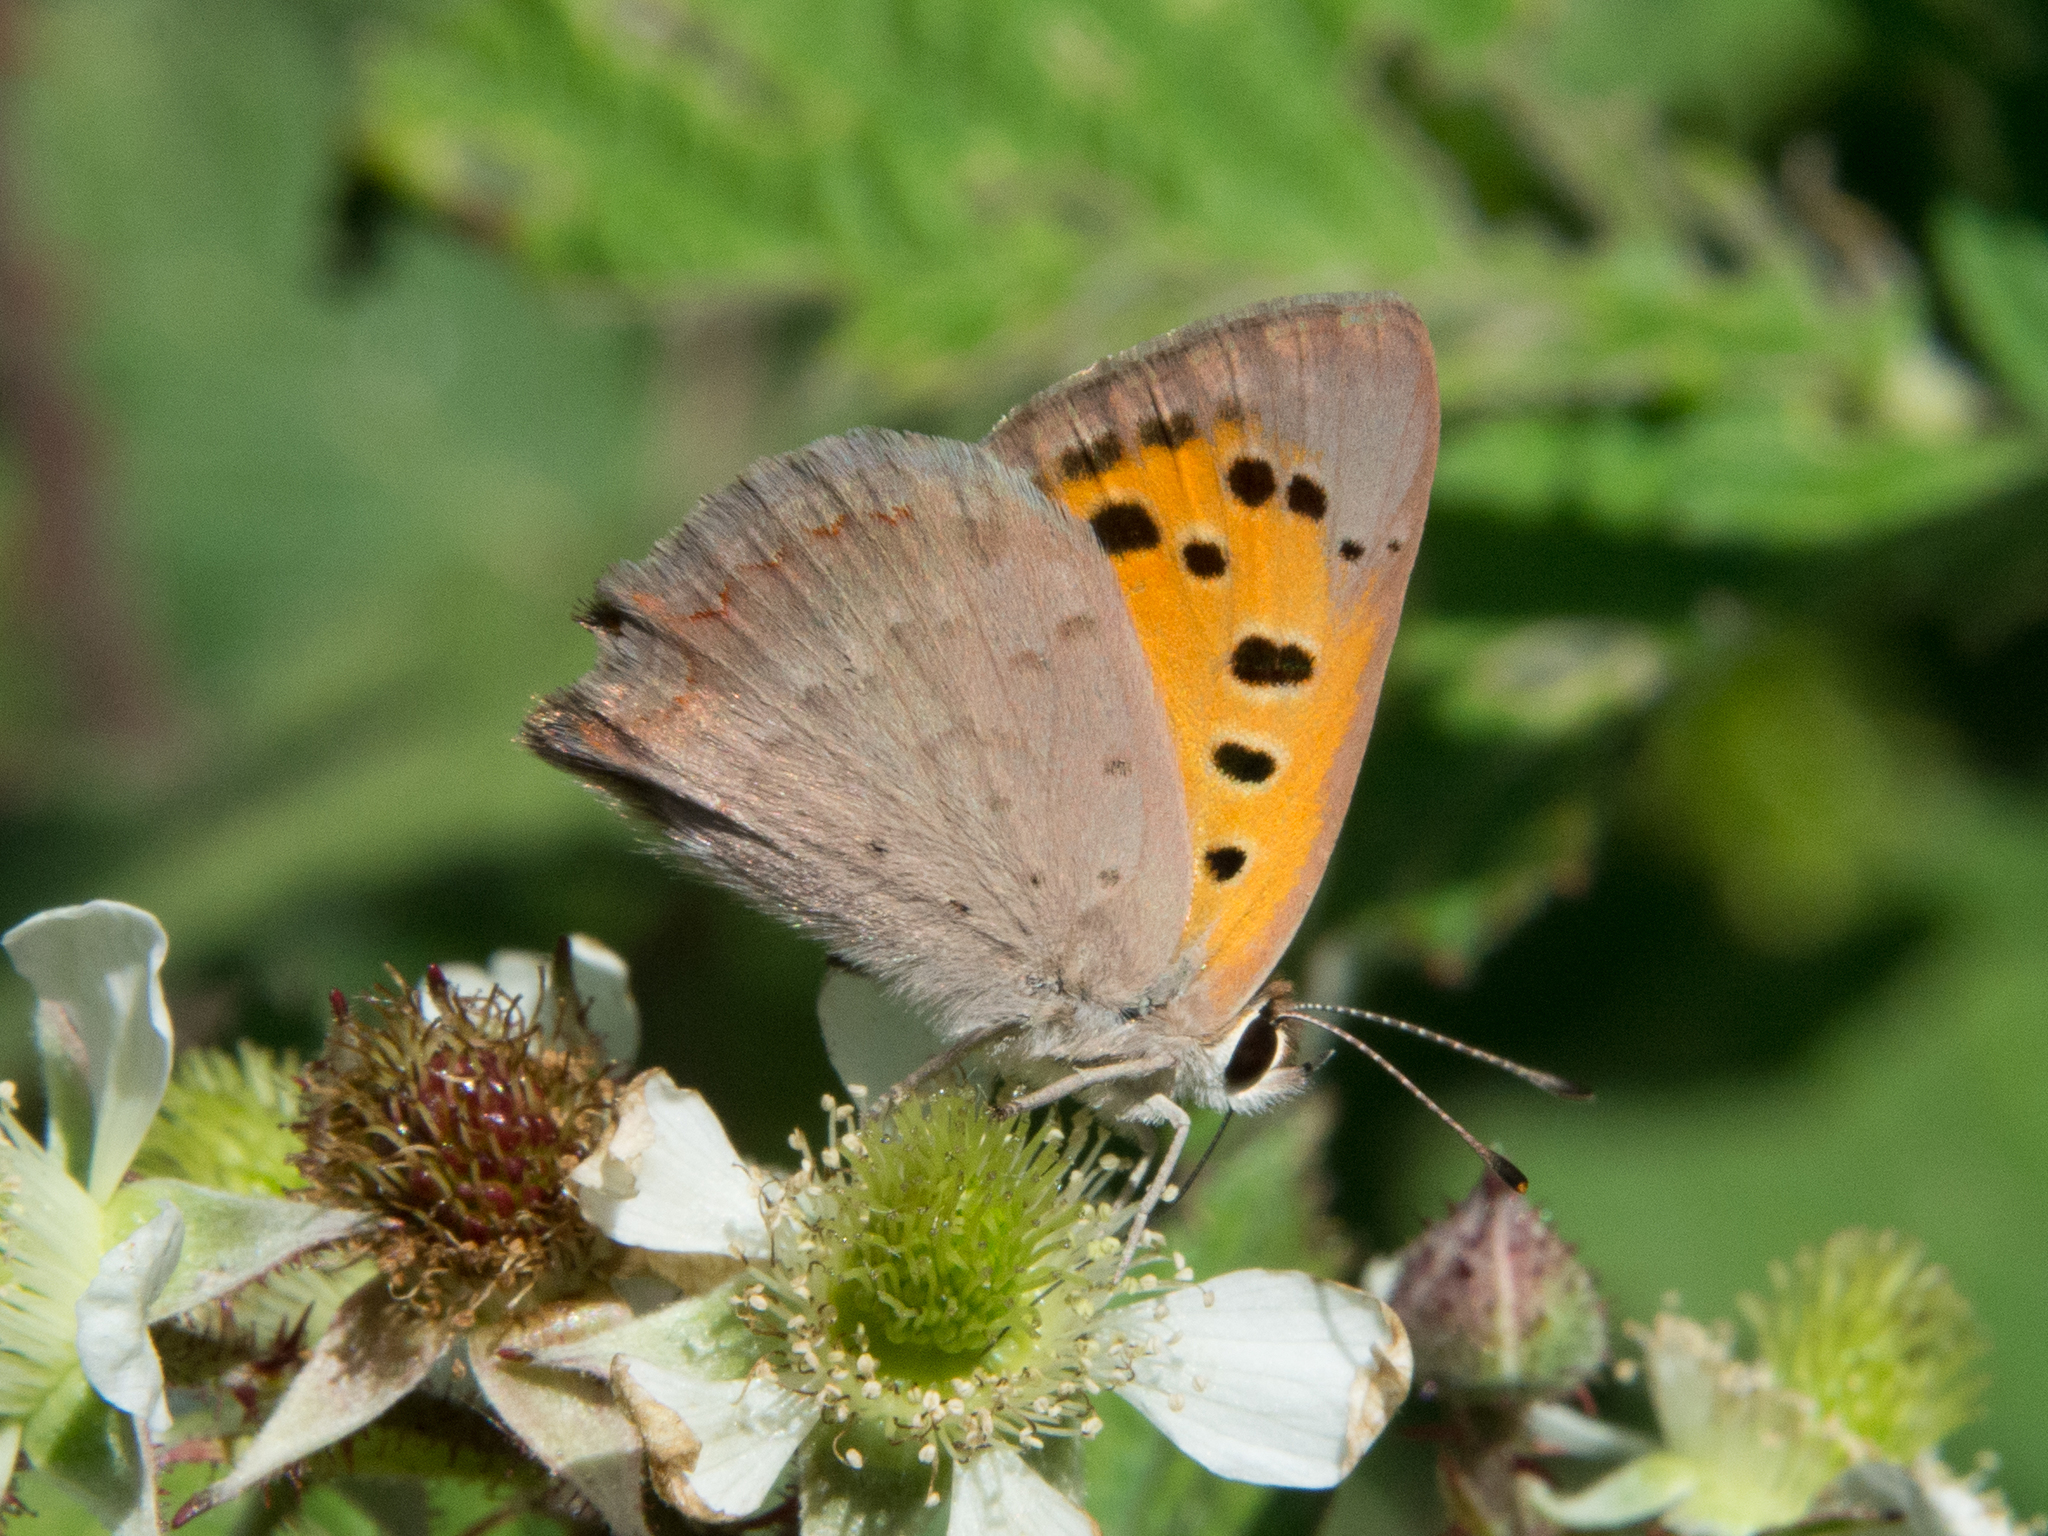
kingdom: Animalia
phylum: Arthropoda
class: Insecta
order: Lepidoptera
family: Lycaenidae
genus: Lycaena
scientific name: Lycaena phlaeas
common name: Small copper
